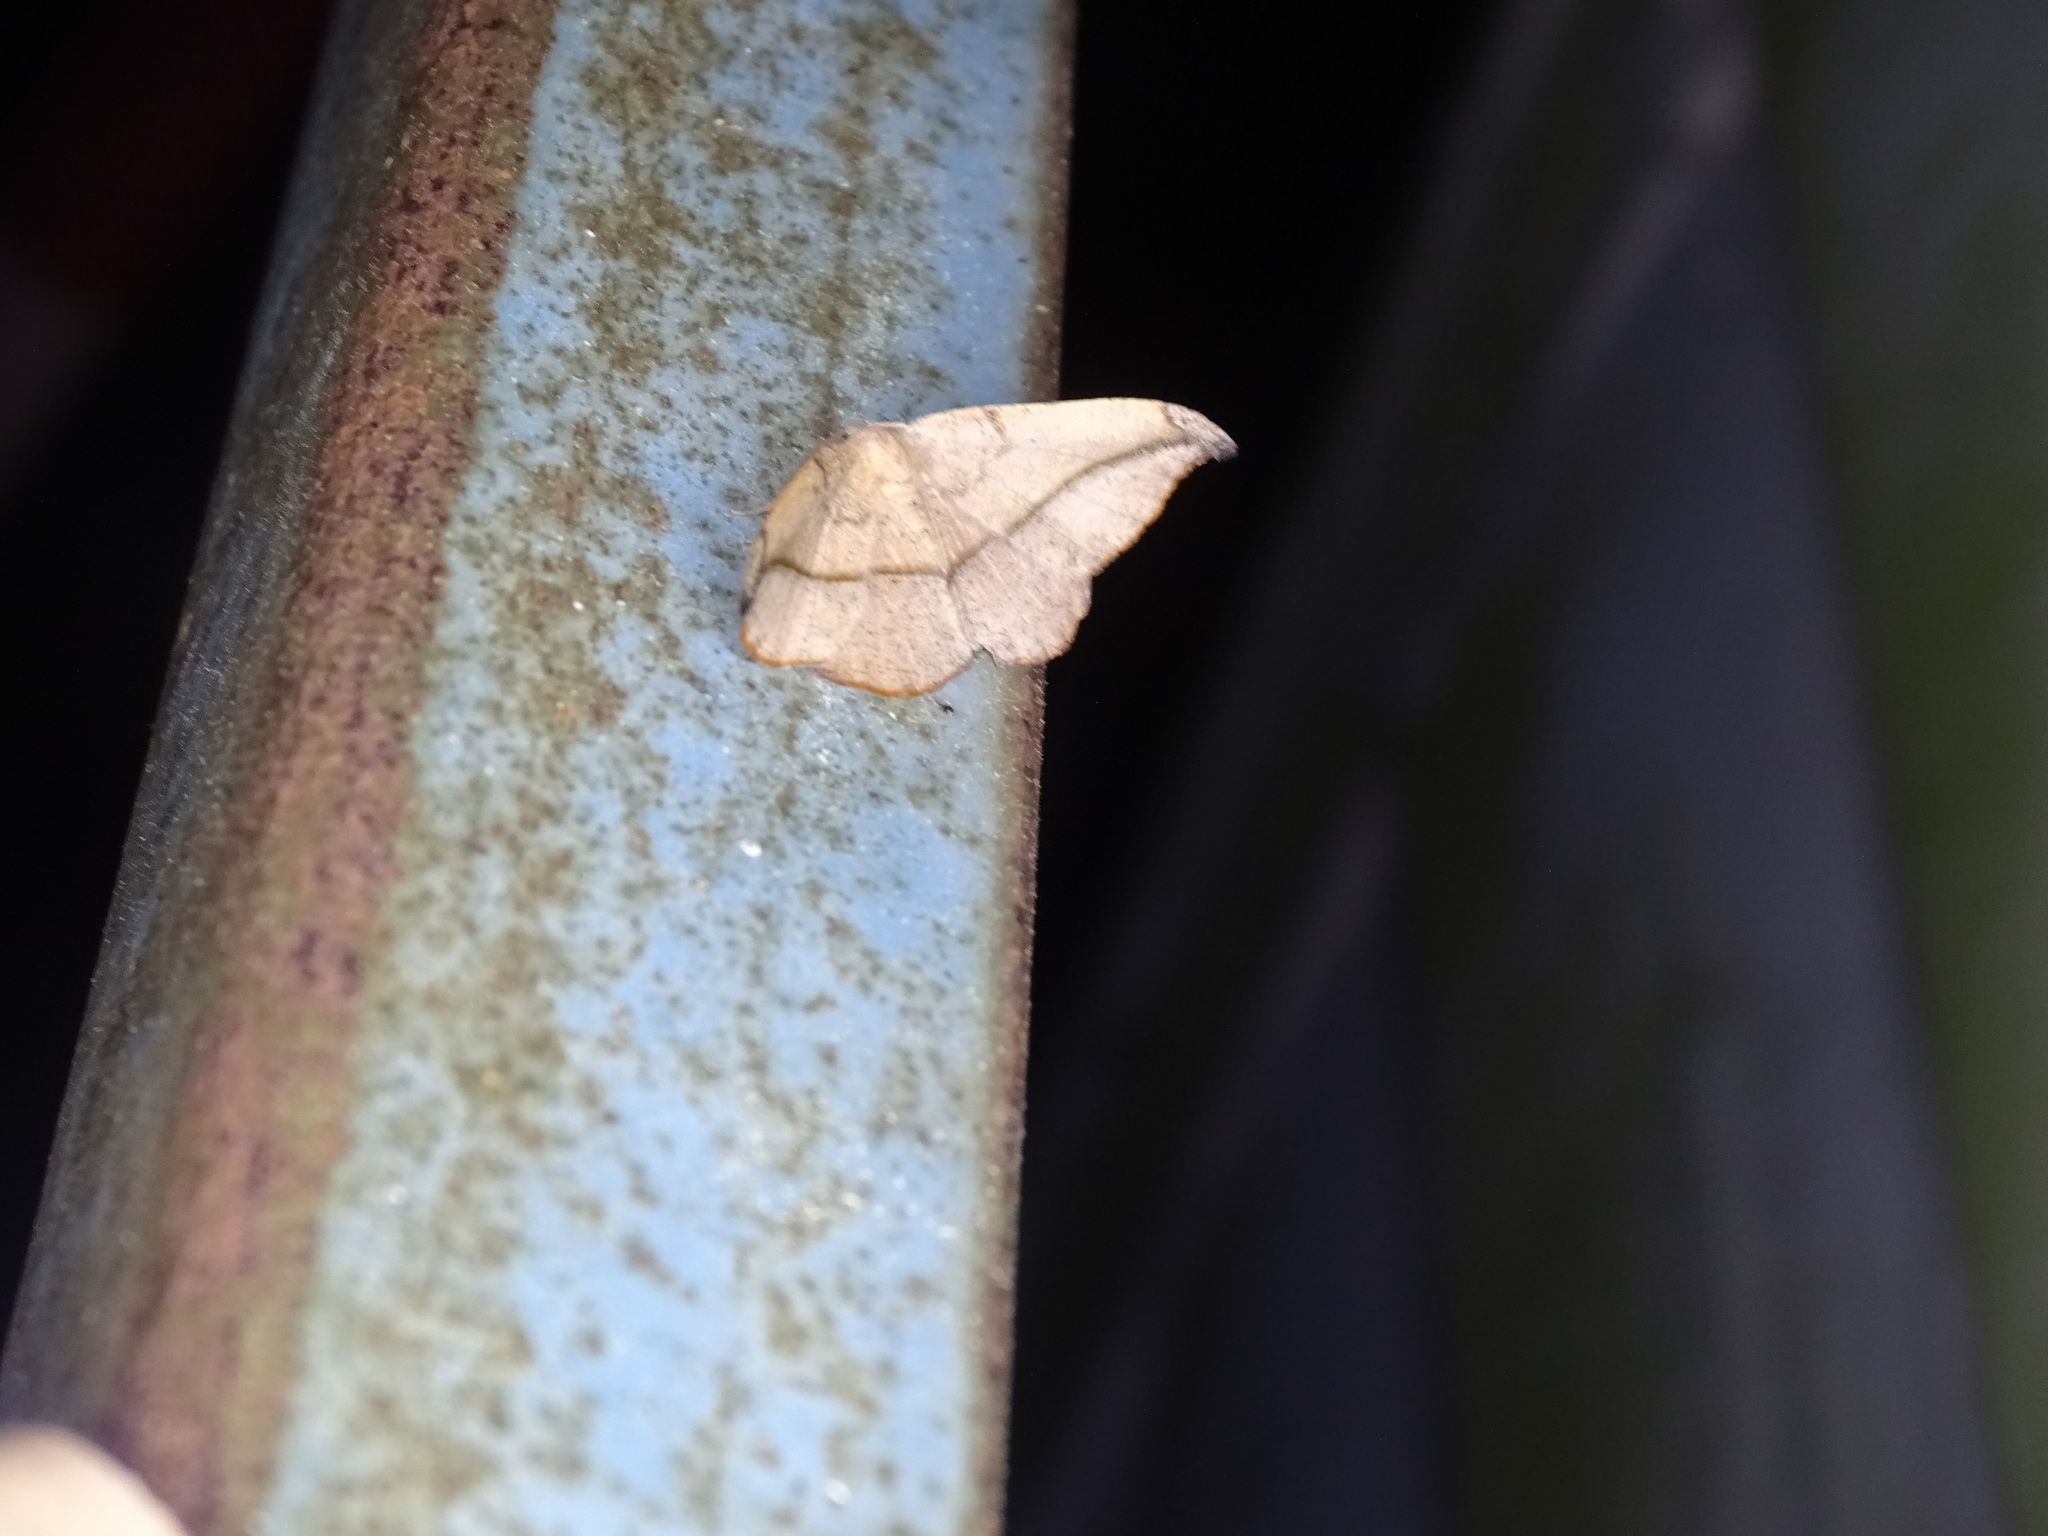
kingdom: Animalia
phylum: Arthropoda
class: Insecta
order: Lepidoptera
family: Geometridae
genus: Patalene
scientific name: Patalene olyzonaria
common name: Juniper geometer moth
